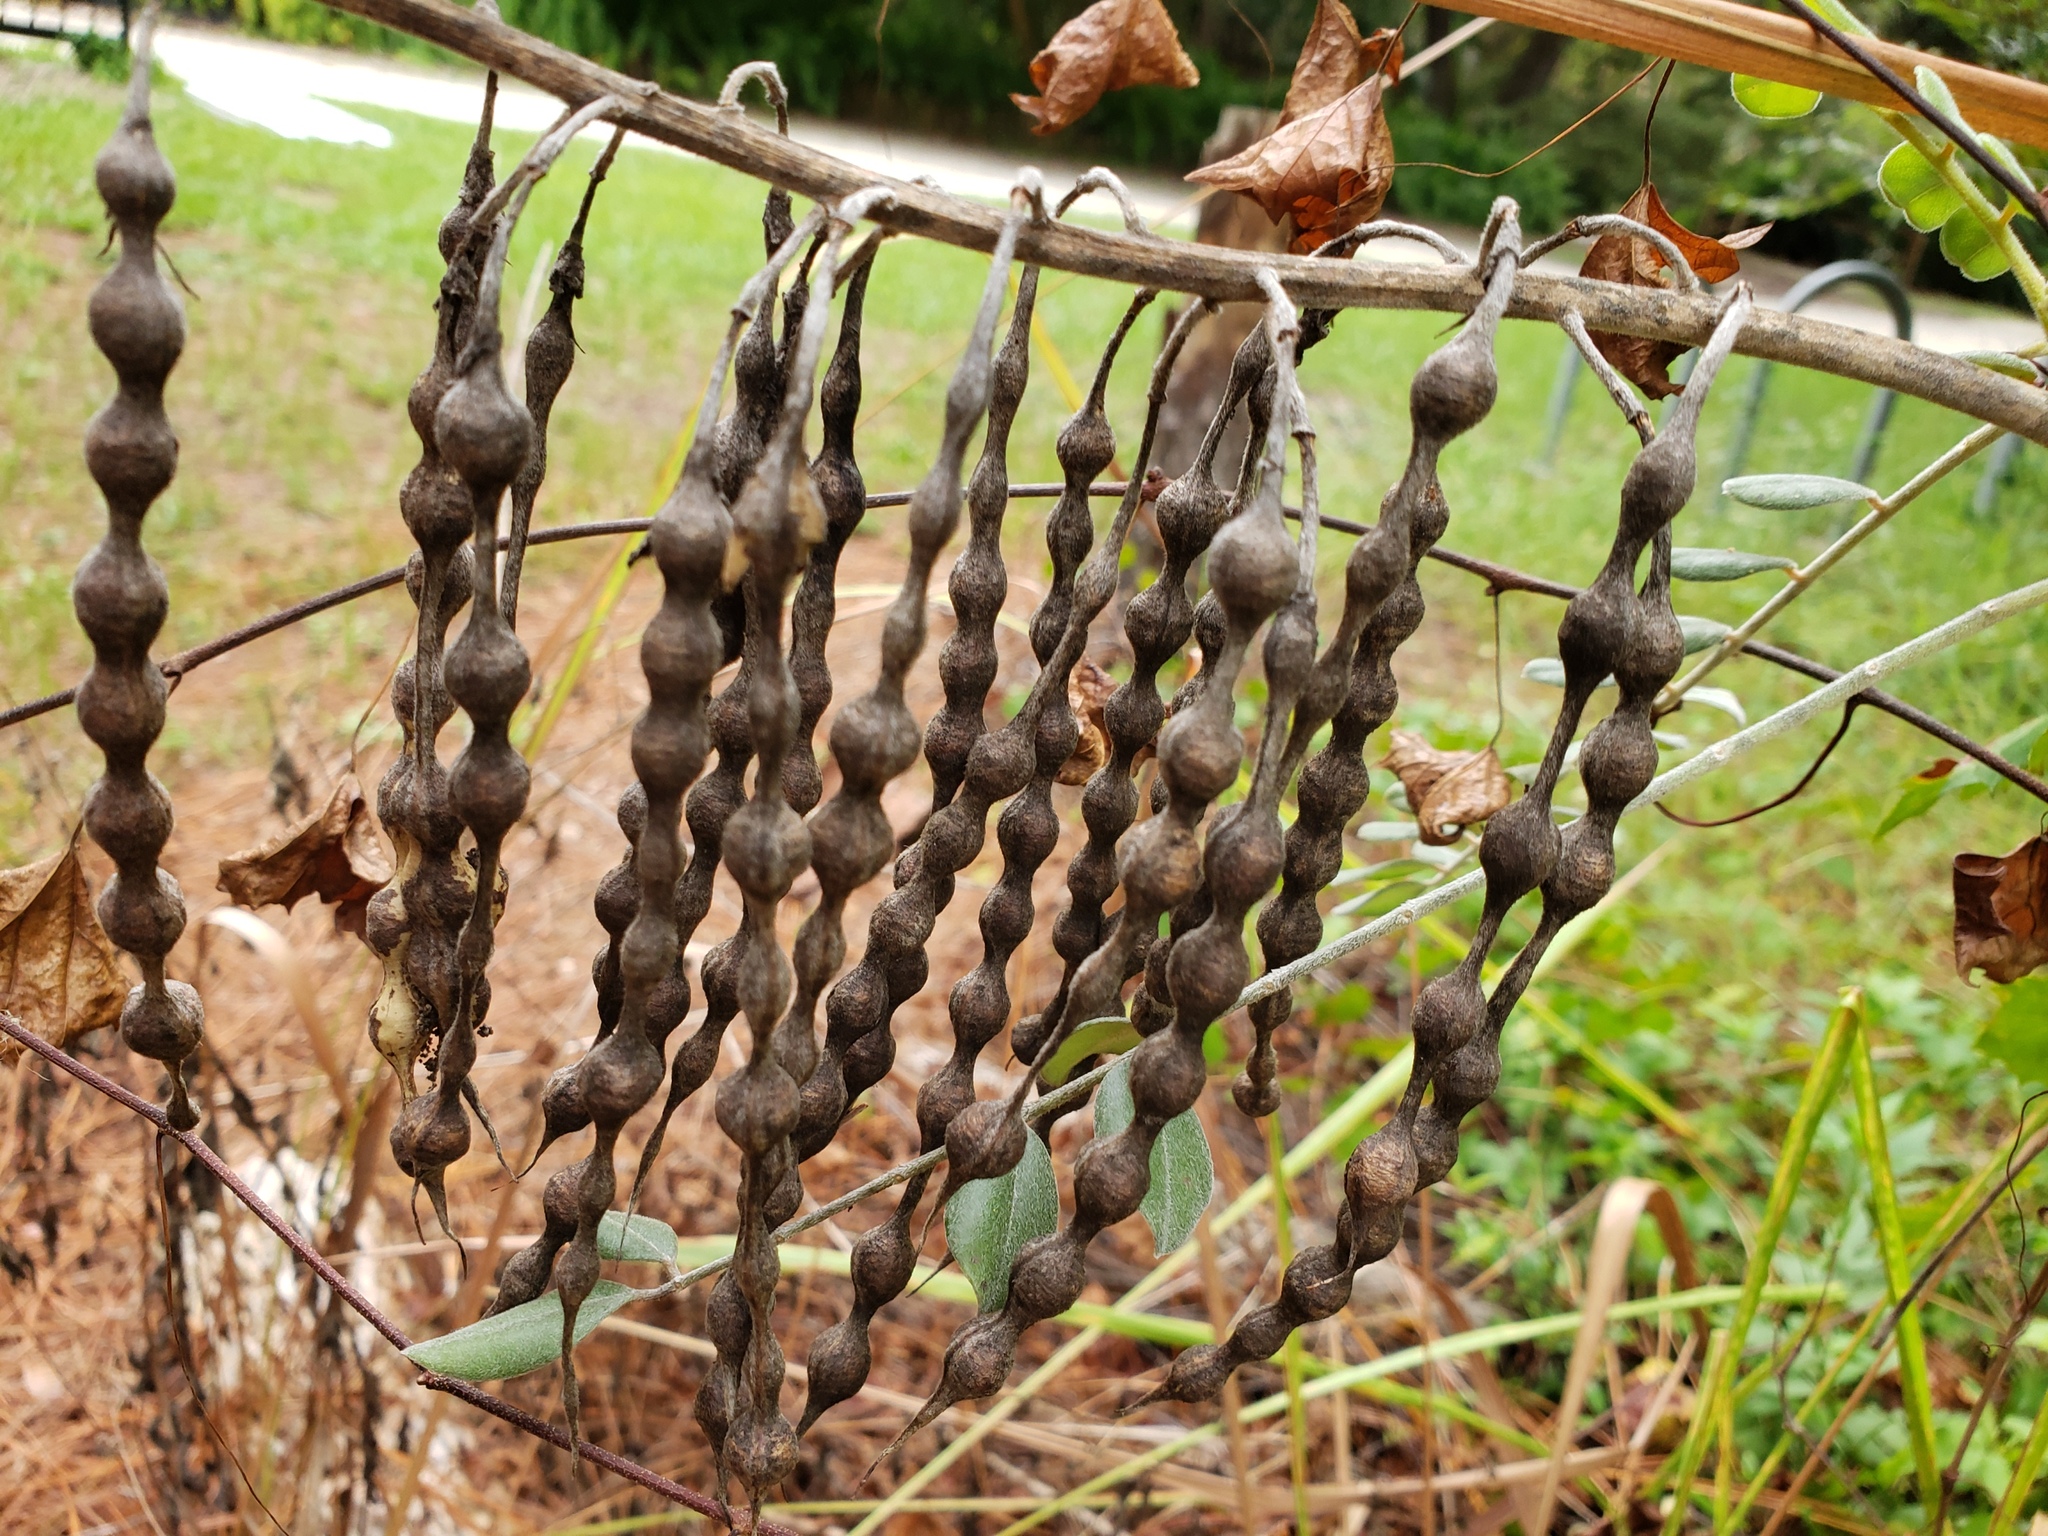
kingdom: Plantae
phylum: Tracheophyta
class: Magnoliopsida
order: Fabales
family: Fabaceae
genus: Sophora
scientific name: Sophora tomentosa
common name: Yellow necklacepod
